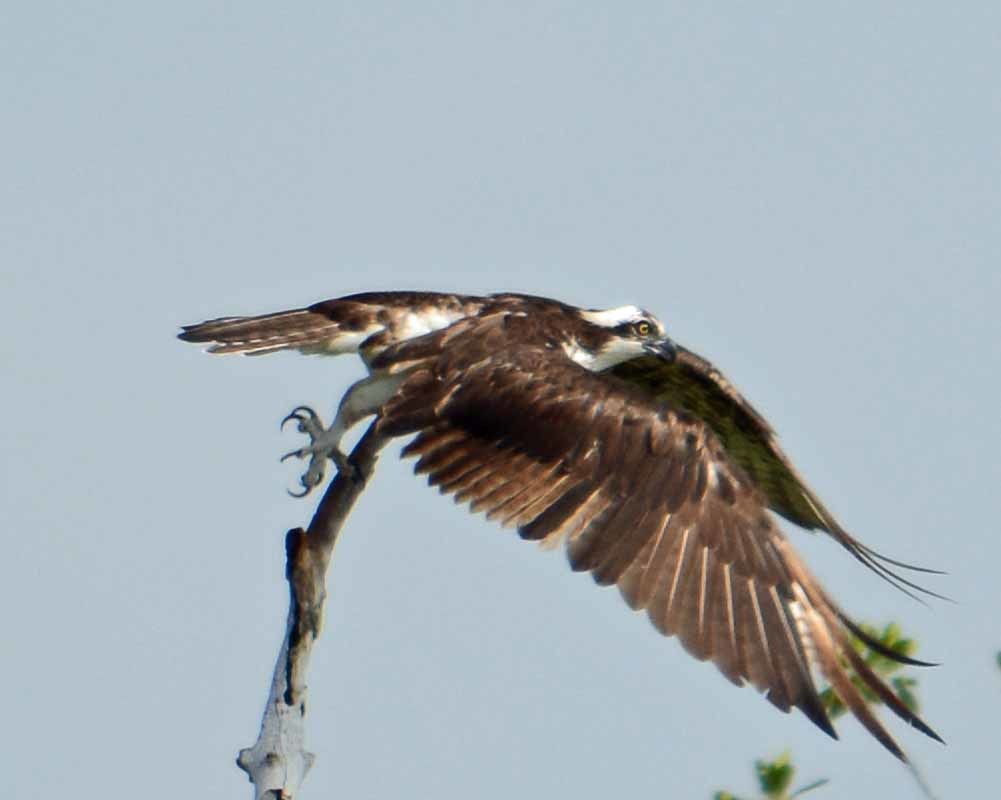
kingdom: Animalia
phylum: Chordata
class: Aves
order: Accipitriformes
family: Pandionidae
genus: Pandion
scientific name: Pandion haliaetus
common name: Osprey
